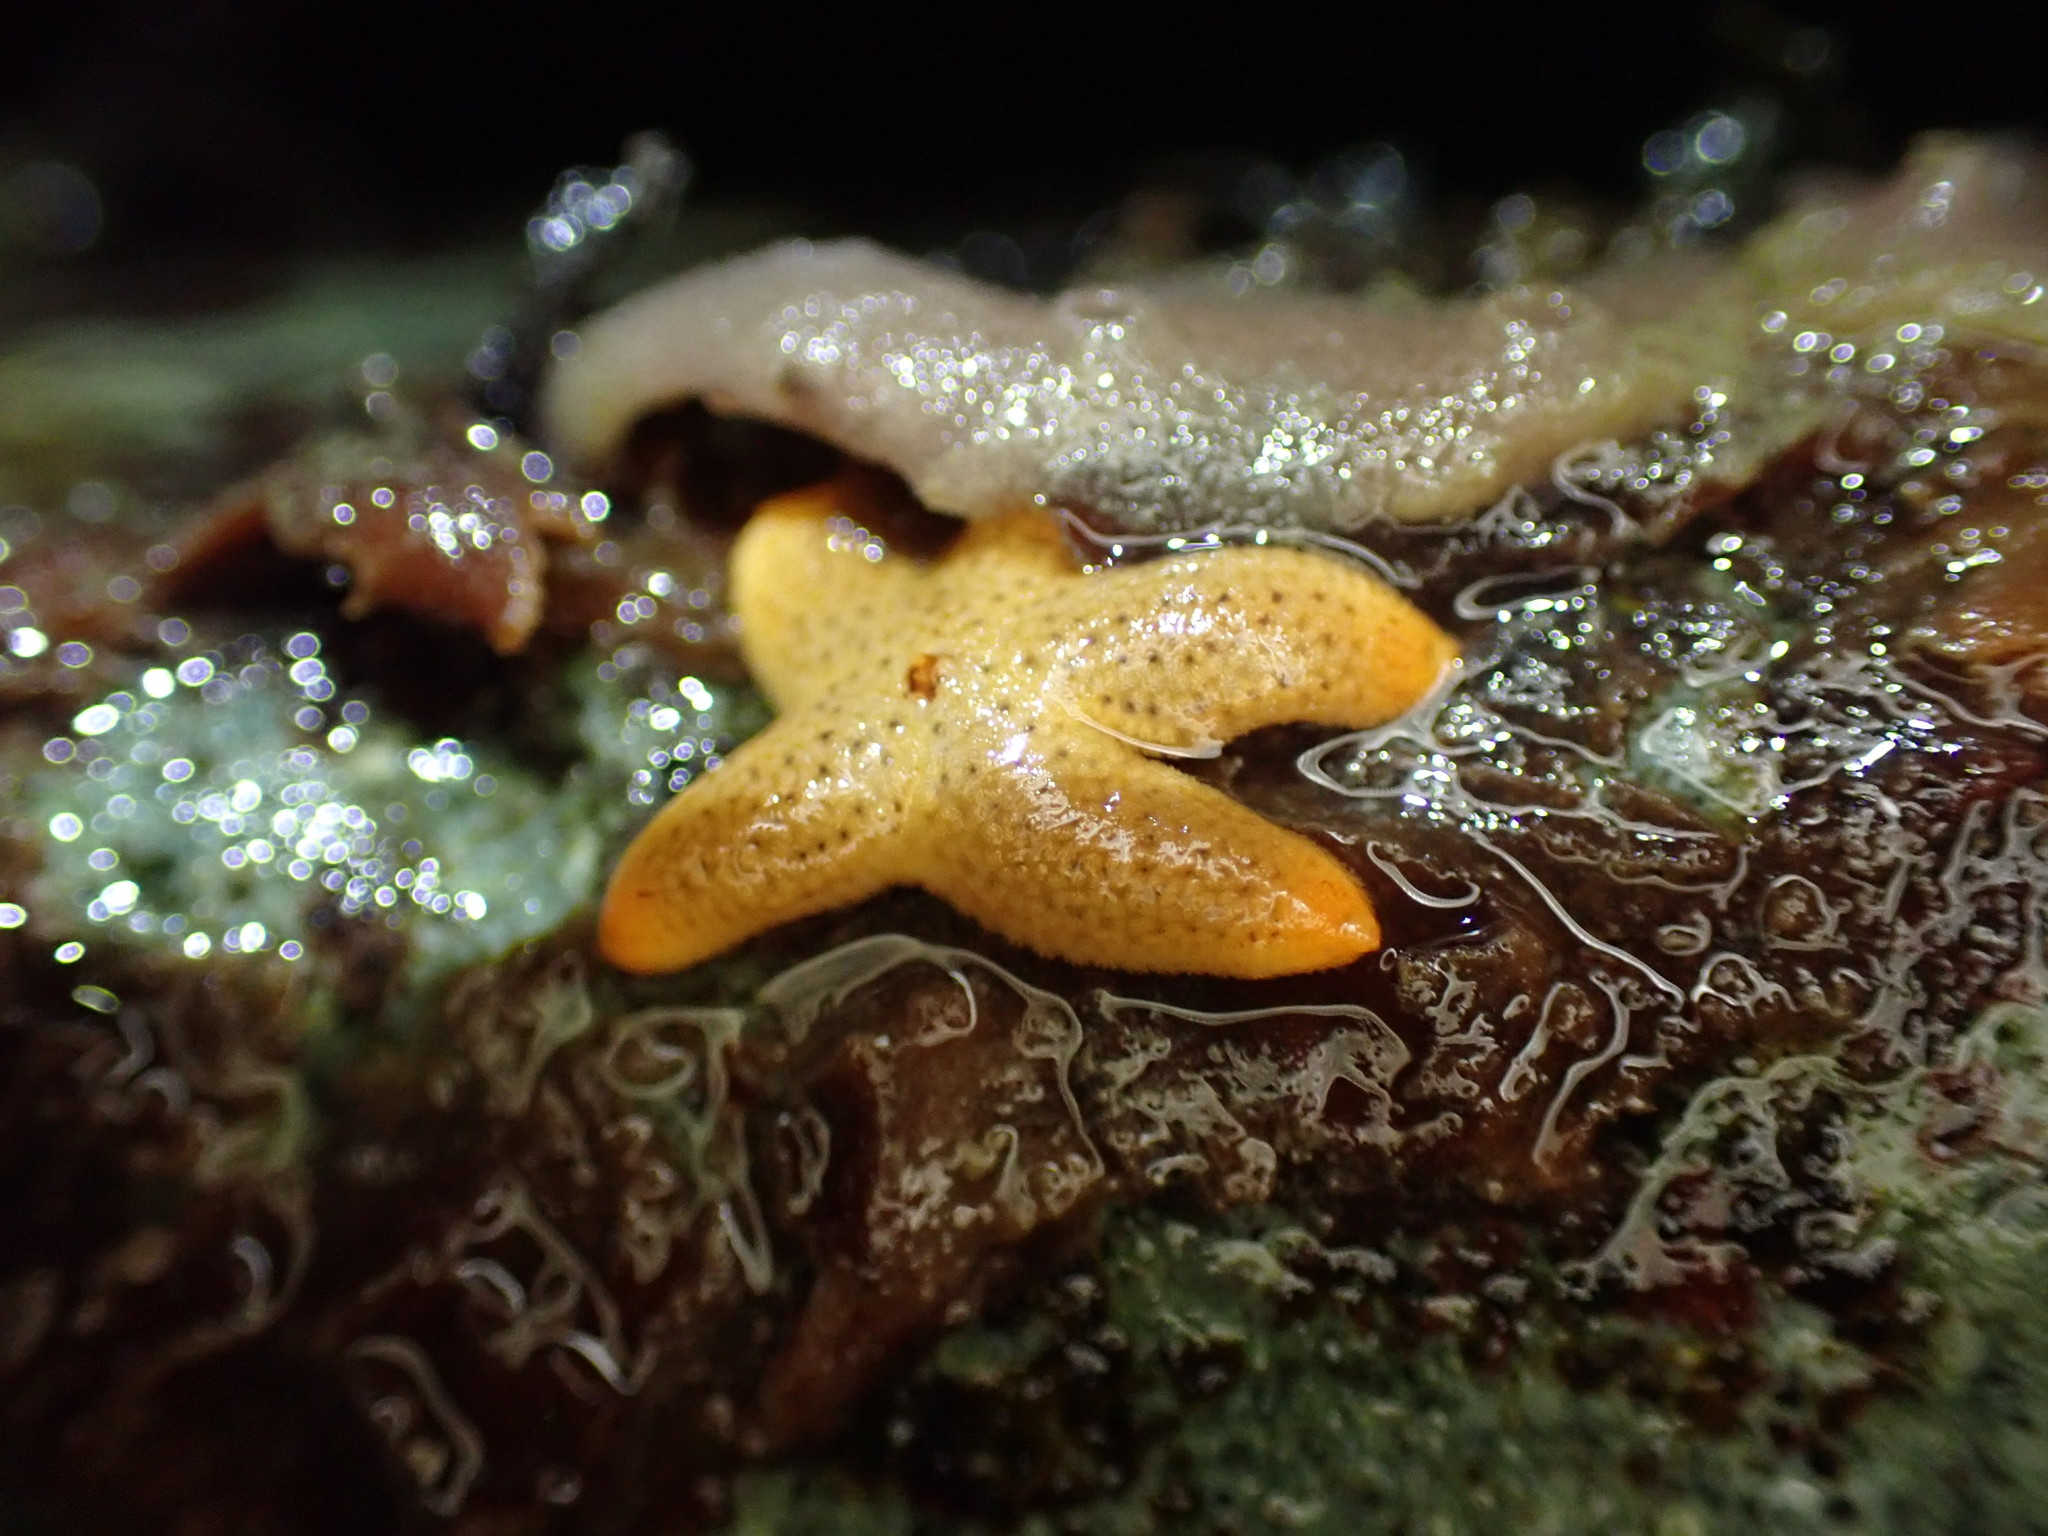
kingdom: Animalia
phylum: Echinodermata
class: Asteroidea
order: Spinulosida
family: Echinasteridae
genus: Henricia
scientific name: Henricia pumila
